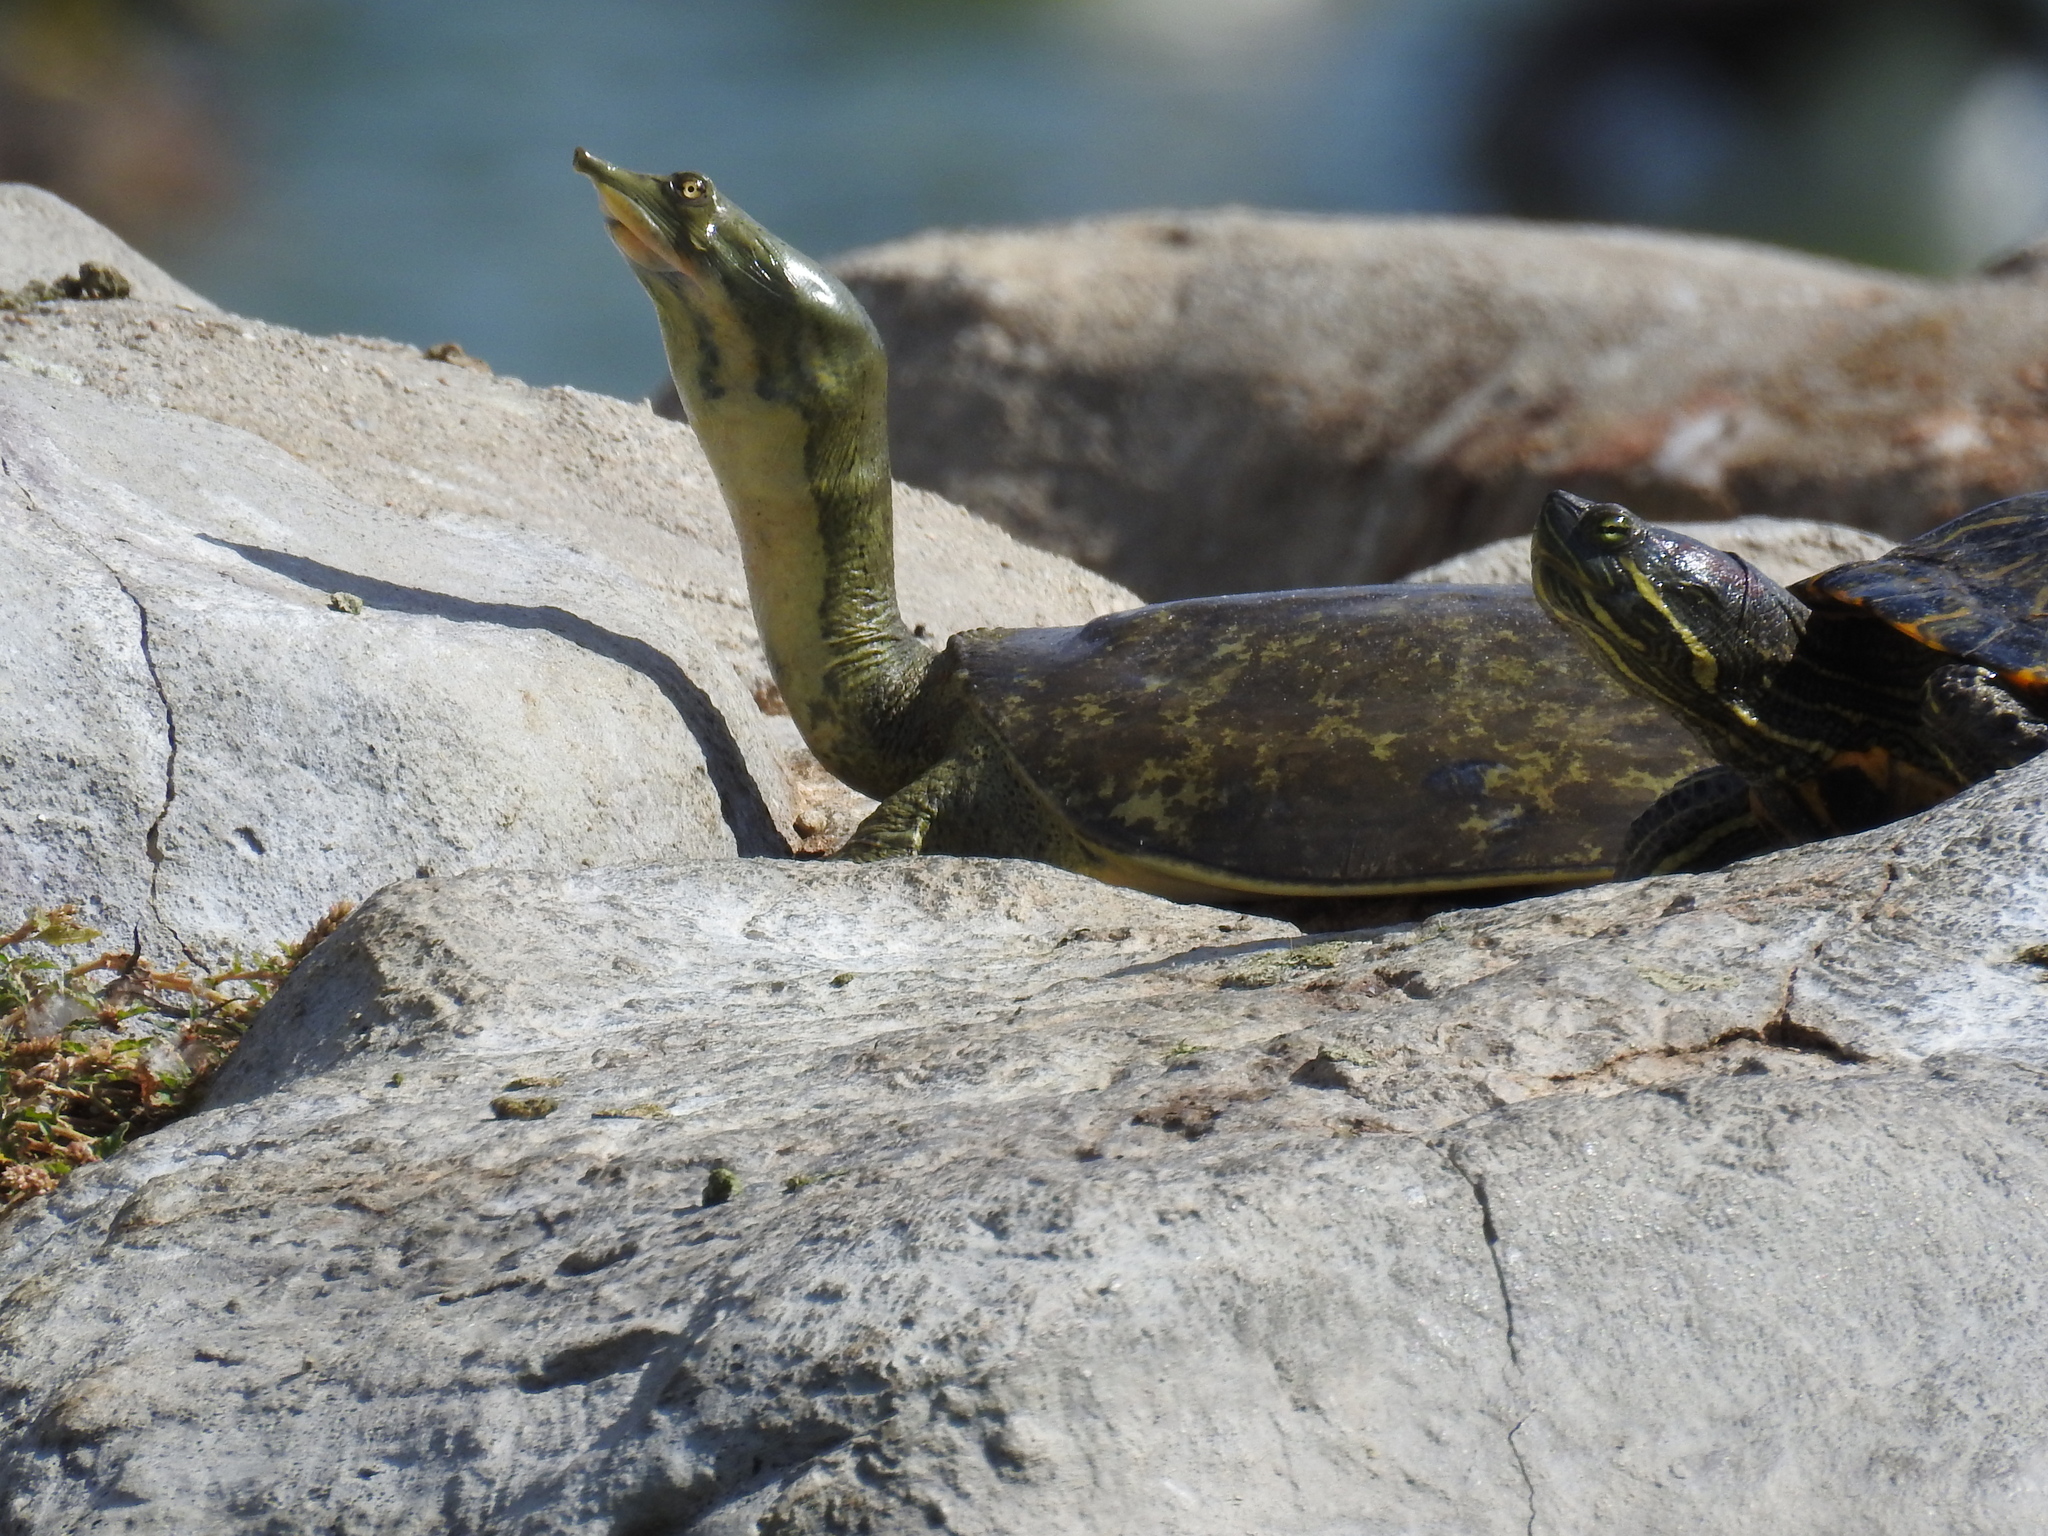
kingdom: Animalia
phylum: Chordata
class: Testudines
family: Trionychidae
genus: Apalone
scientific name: Apalone spinifera
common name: Spiny softshell turtle
